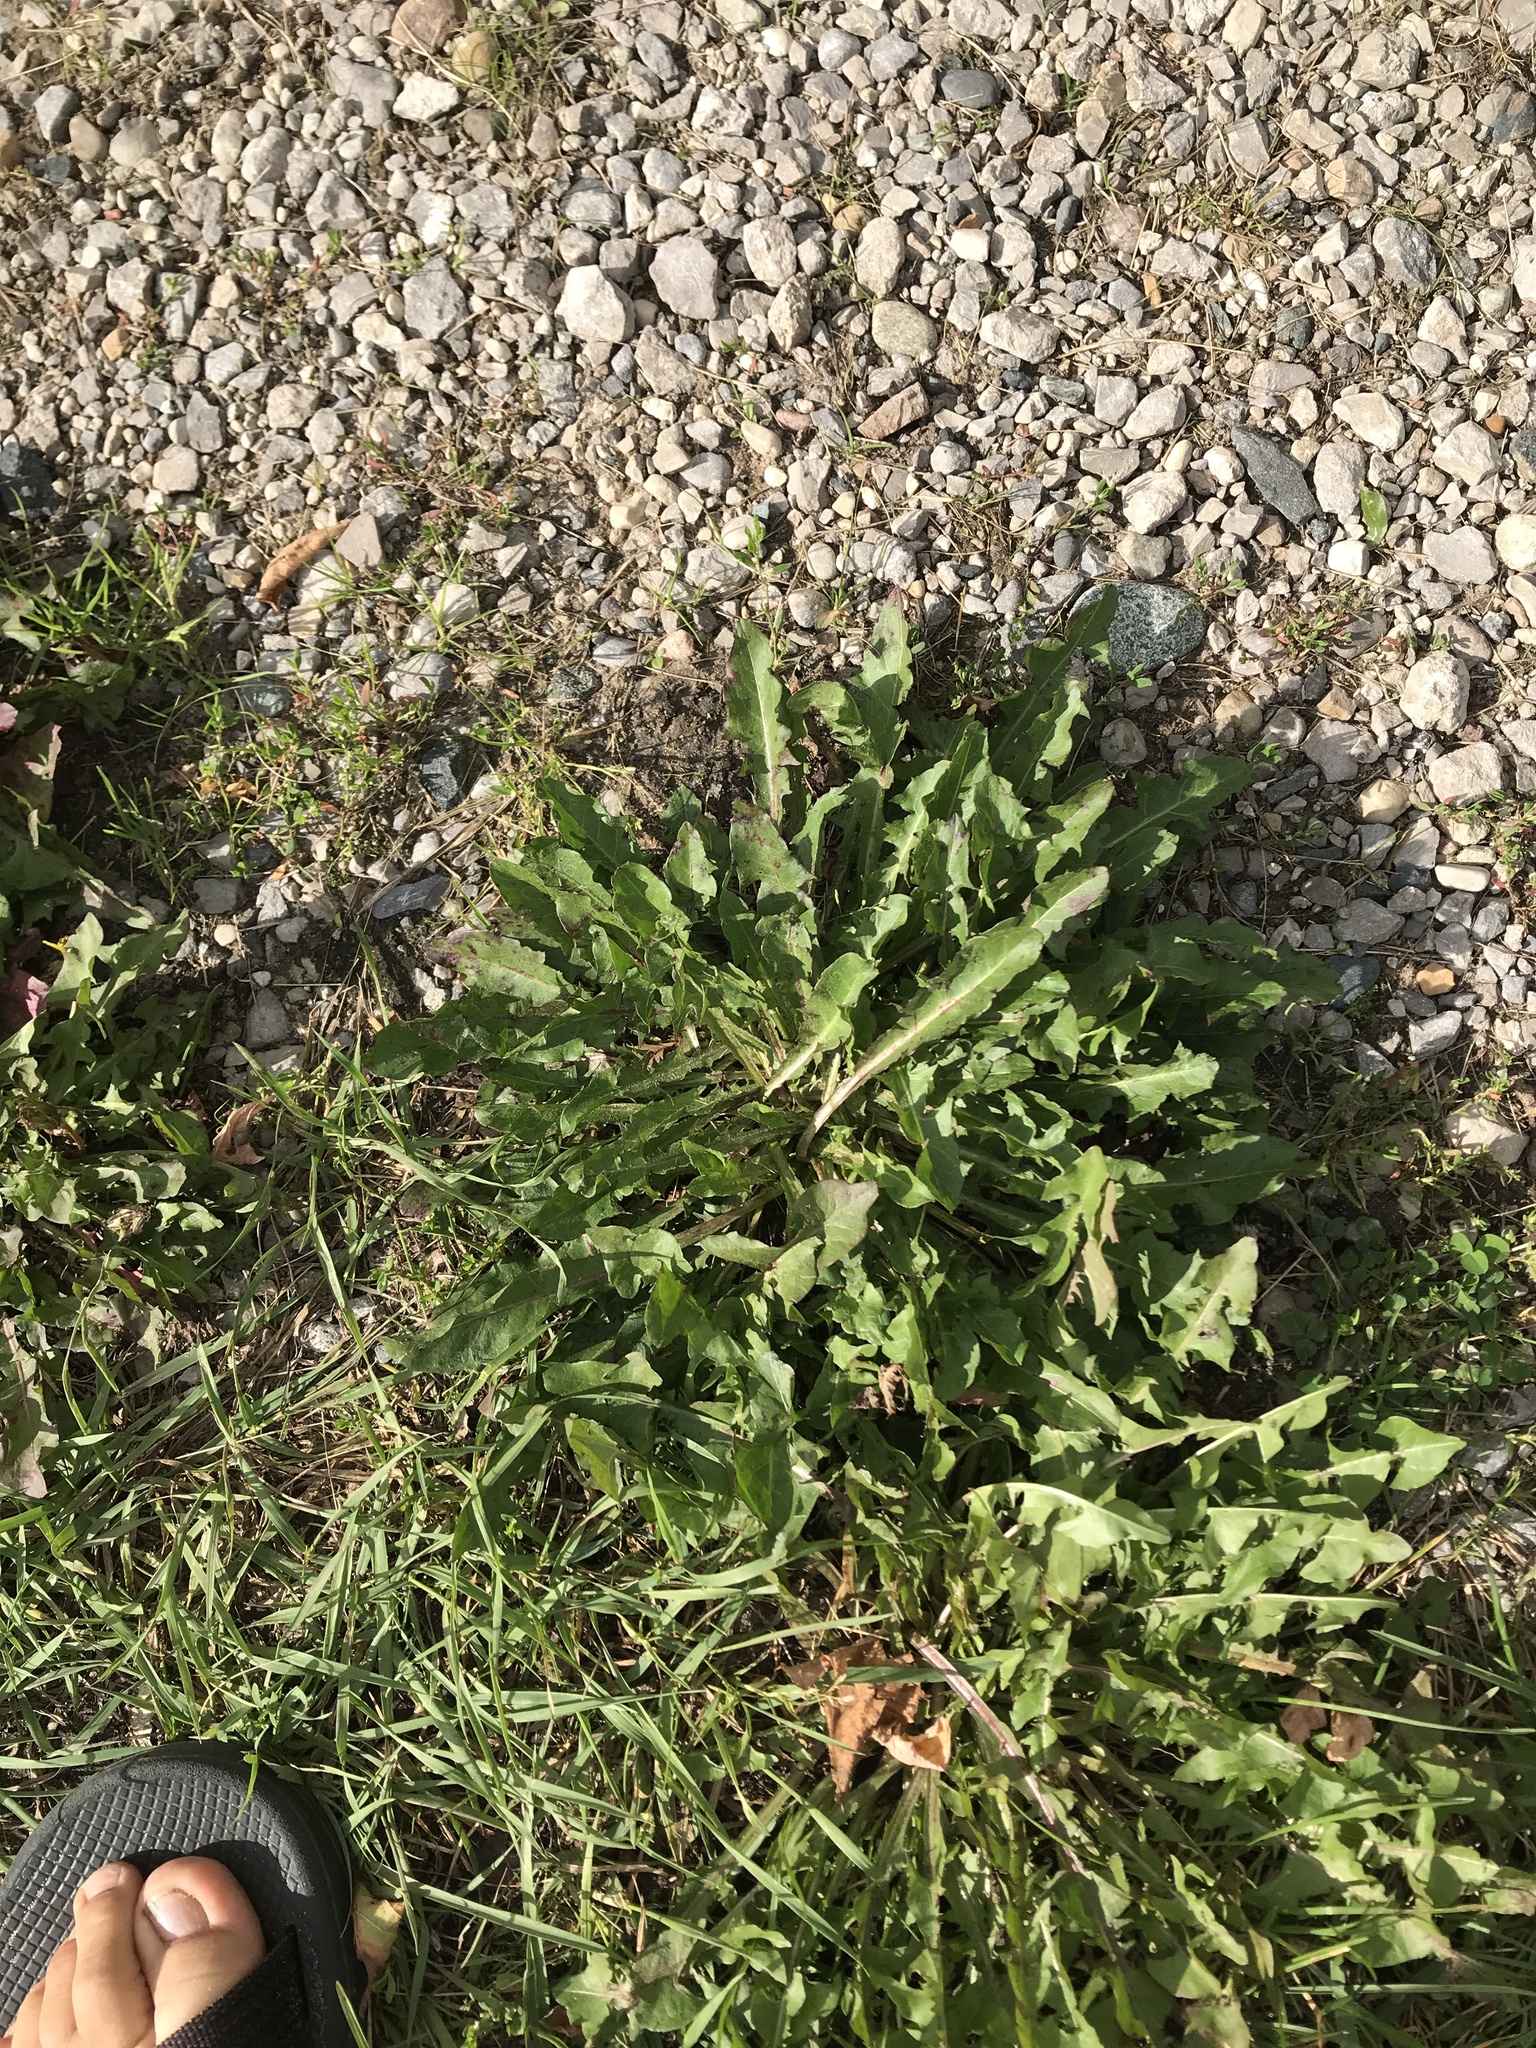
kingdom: Plantae
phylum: Tracheophyta
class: Magnoliopsida
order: Asterales
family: Asteraceae
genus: Taraxacum
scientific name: Taraxacum officinale
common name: Common dandelion
